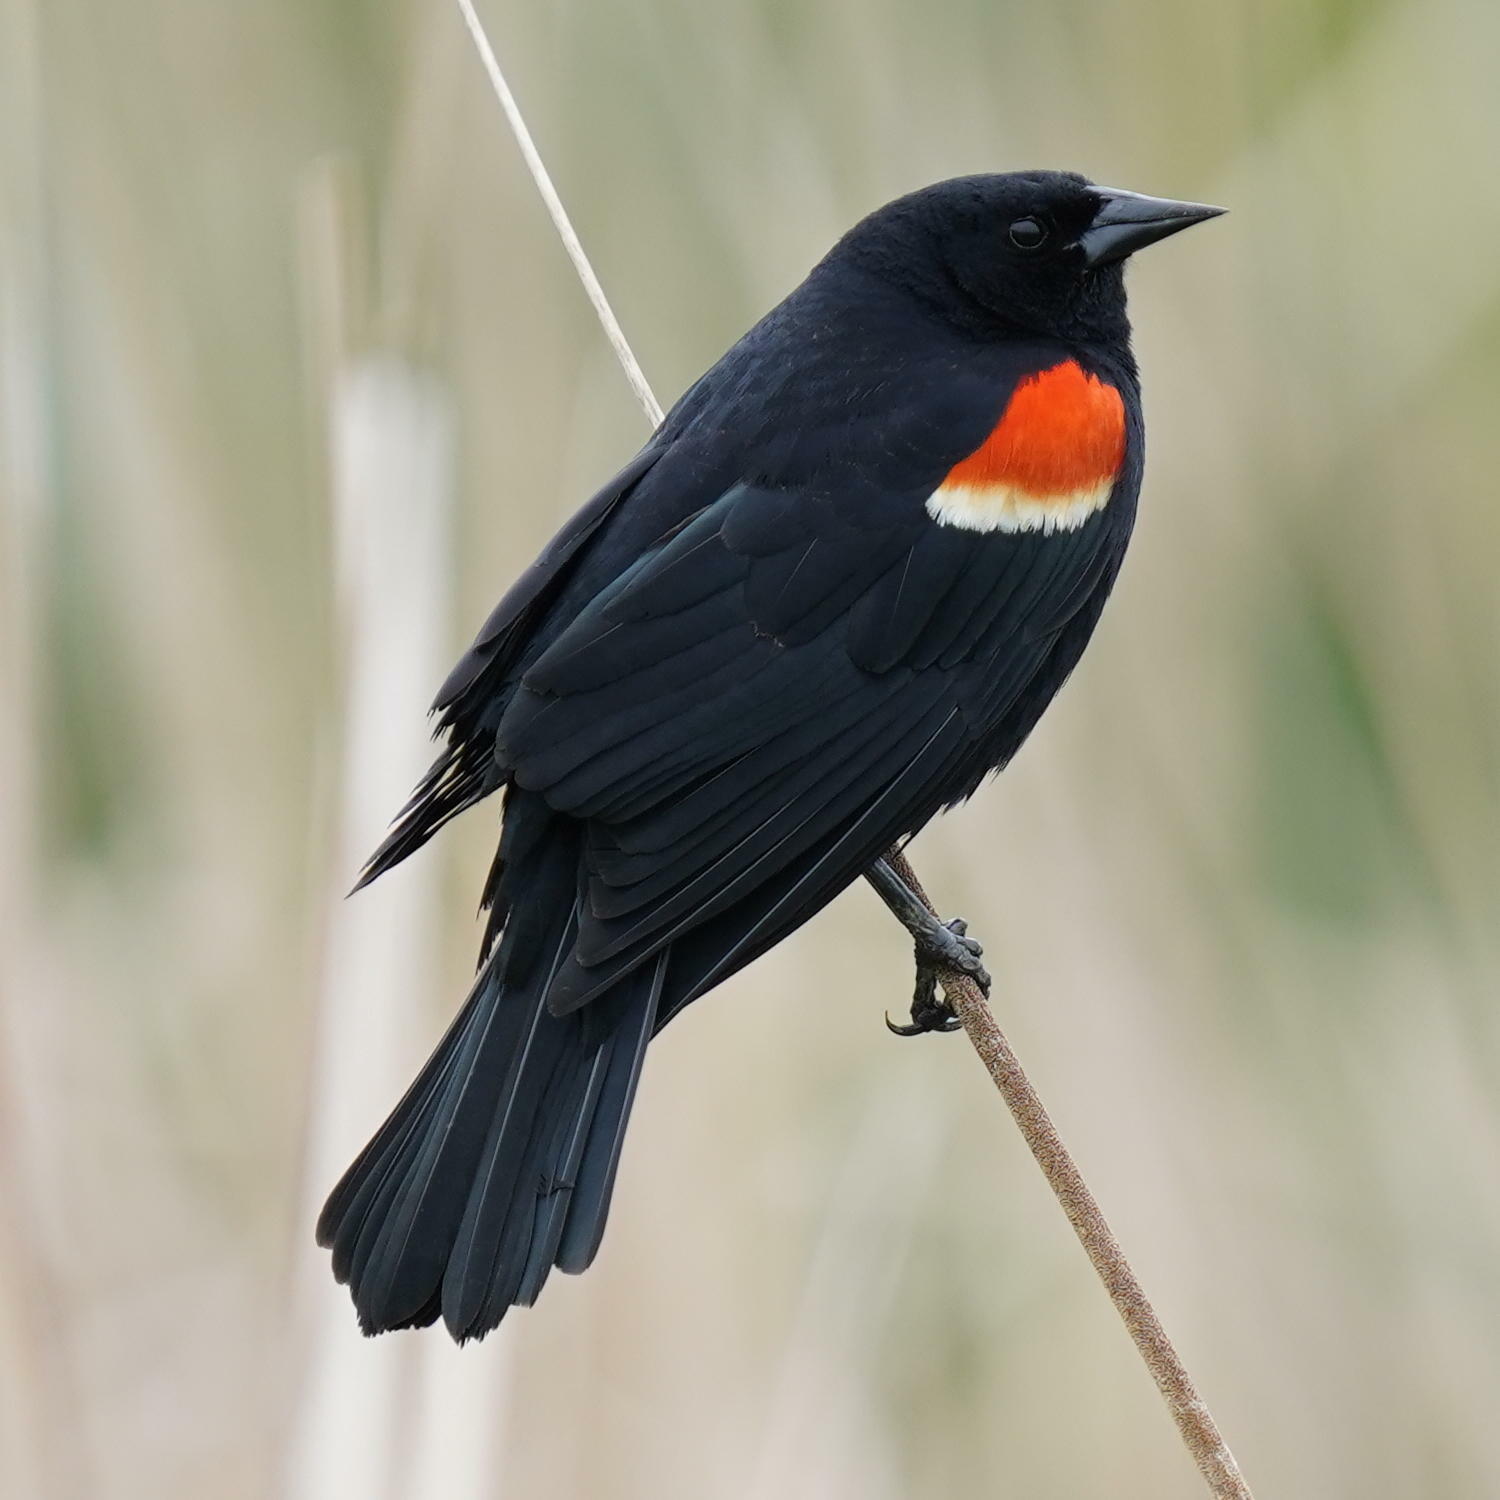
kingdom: Animalia
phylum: Chordata
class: Aves
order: Passeriformes
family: Icteridae
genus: Agelaius
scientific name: Agelaius phoeniceus
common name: Red-winged blackbird
